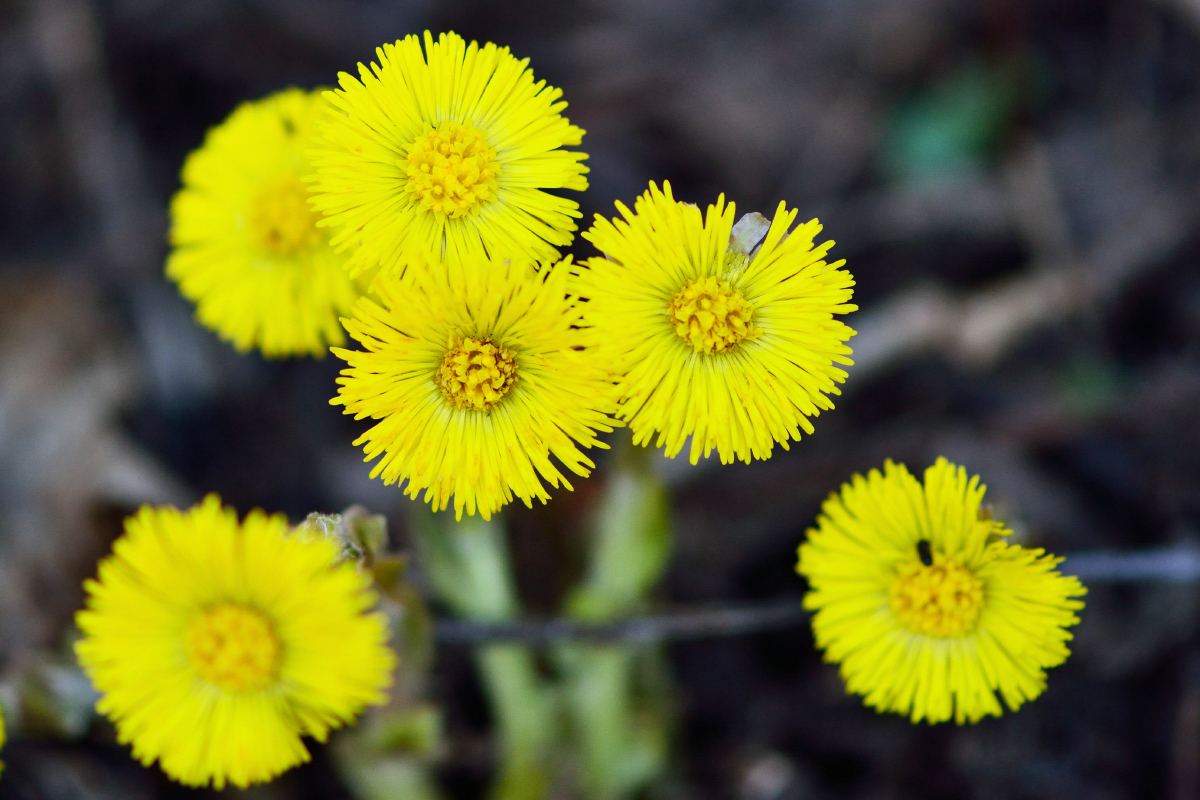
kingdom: Plantae
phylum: Tracheophyta
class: Magnoliopsida
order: Asterales
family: Asteraceae
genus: Tussilago
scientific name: Tussilago farfara
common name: Coltsfoot
